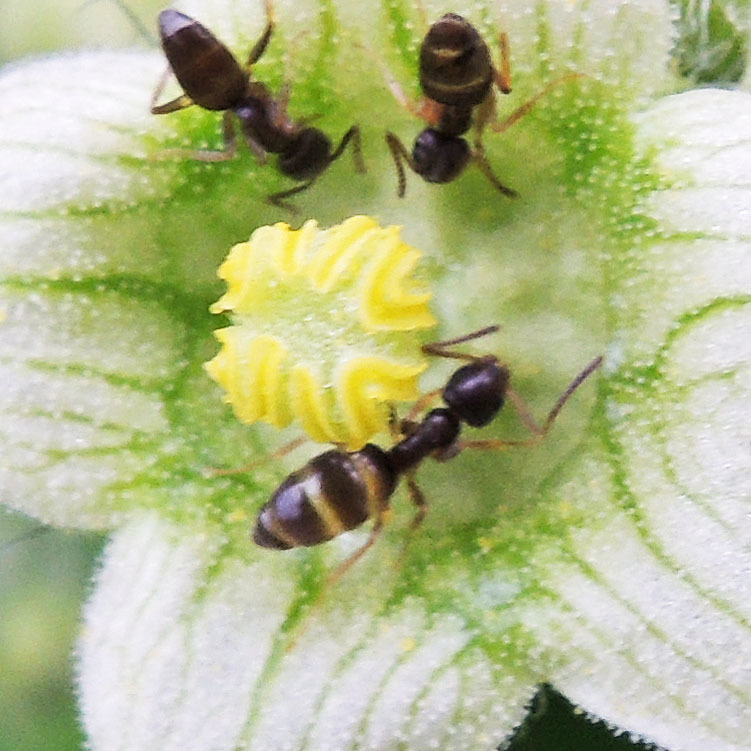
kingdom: Animalia
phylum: Arthropoda
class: Insecta
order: Hymenoptera
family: Formicidae
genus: Tapinoma
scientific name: Tapinoma sessile
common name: Odorous house ant
